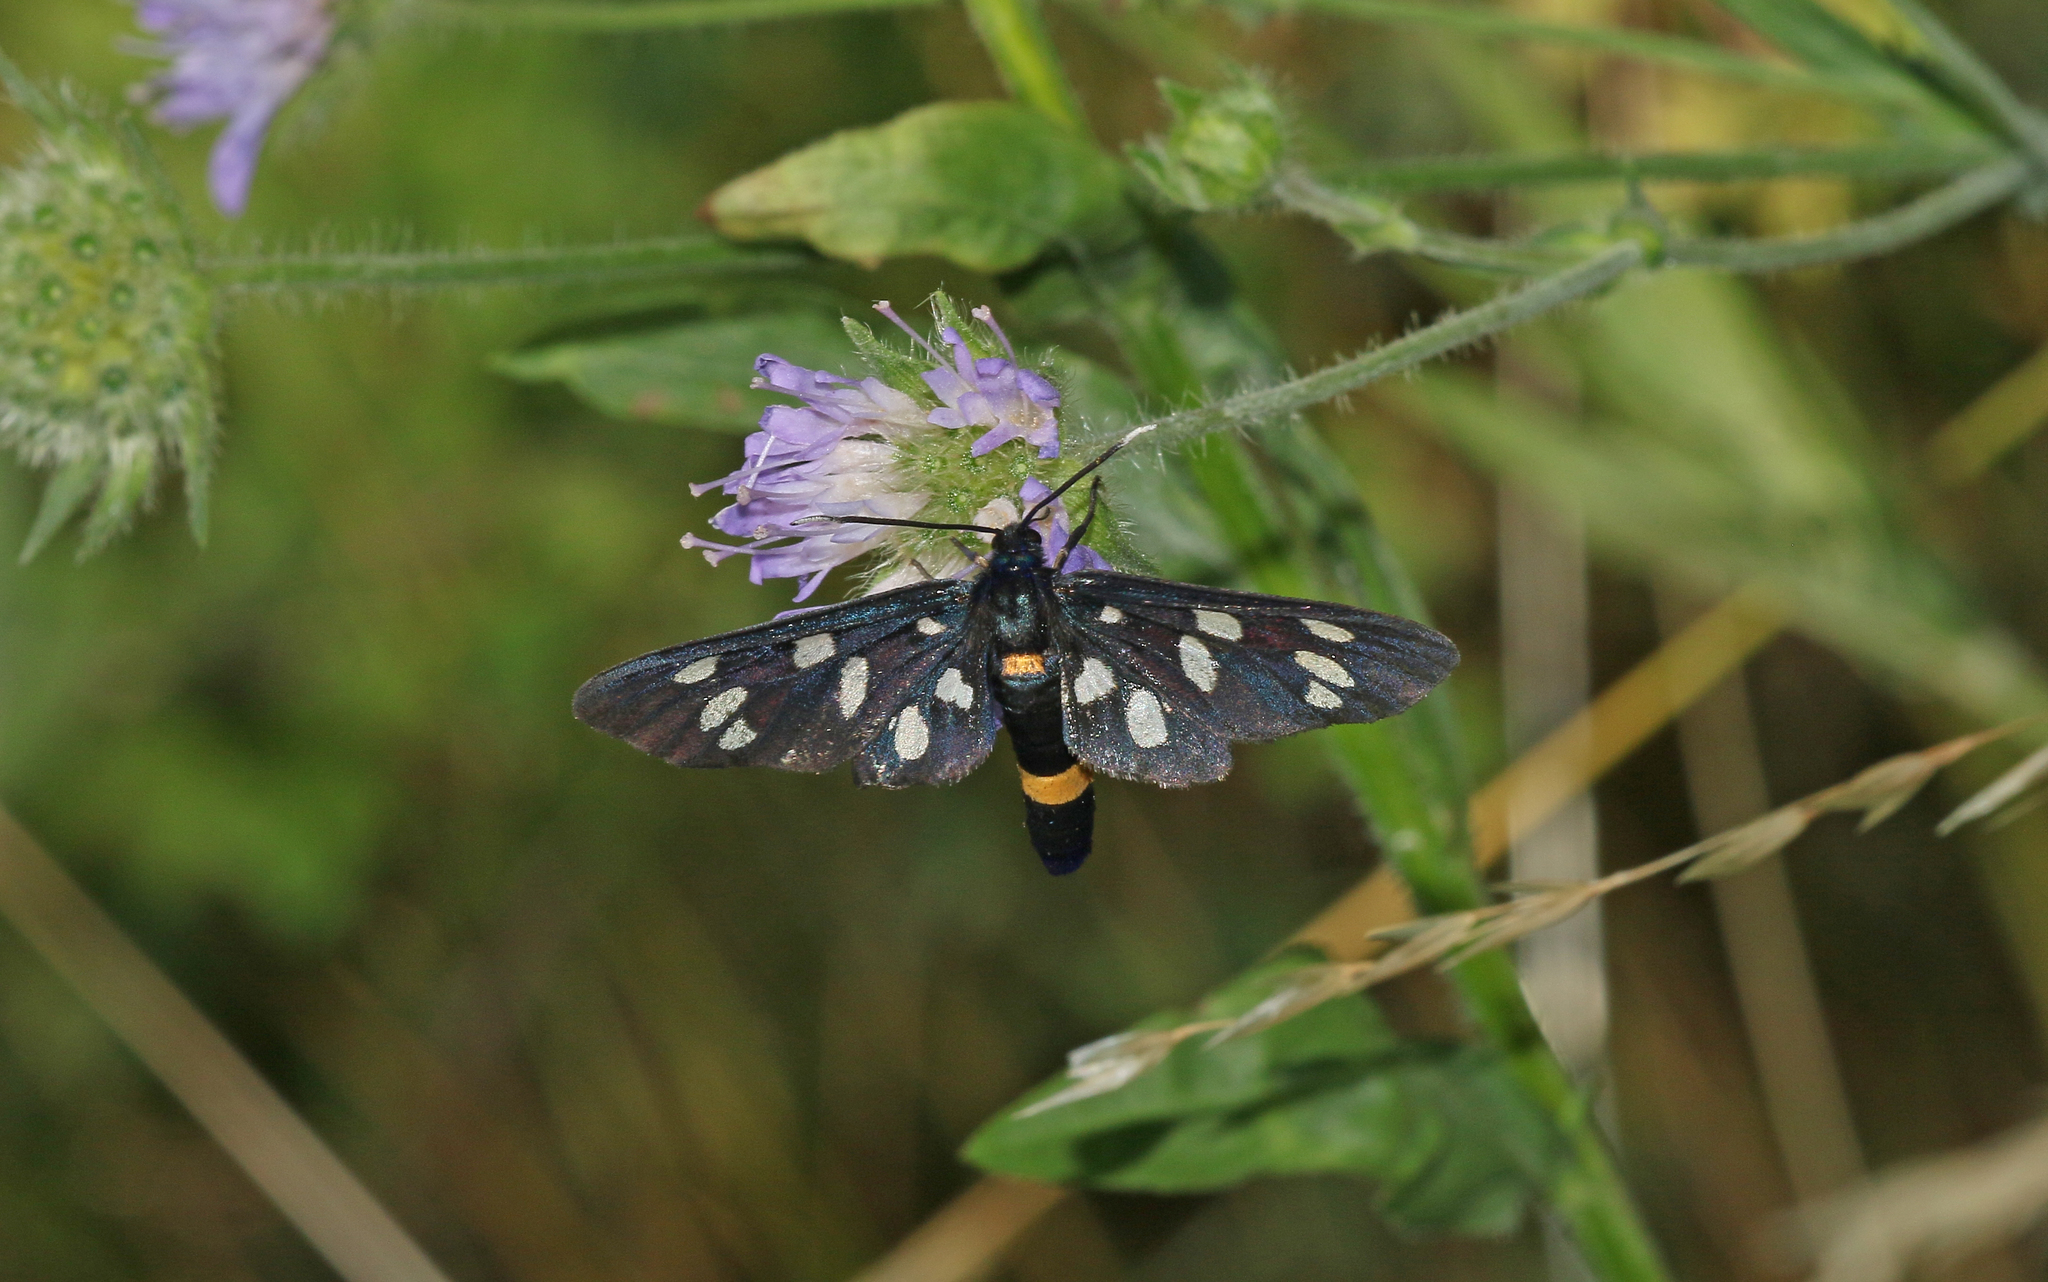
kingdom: Animalia
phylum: Arthropoda
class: Insecta
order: Lepidoptera
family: Erebidae
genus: Amata
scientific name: Amata phegea
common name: Nine-spotted
